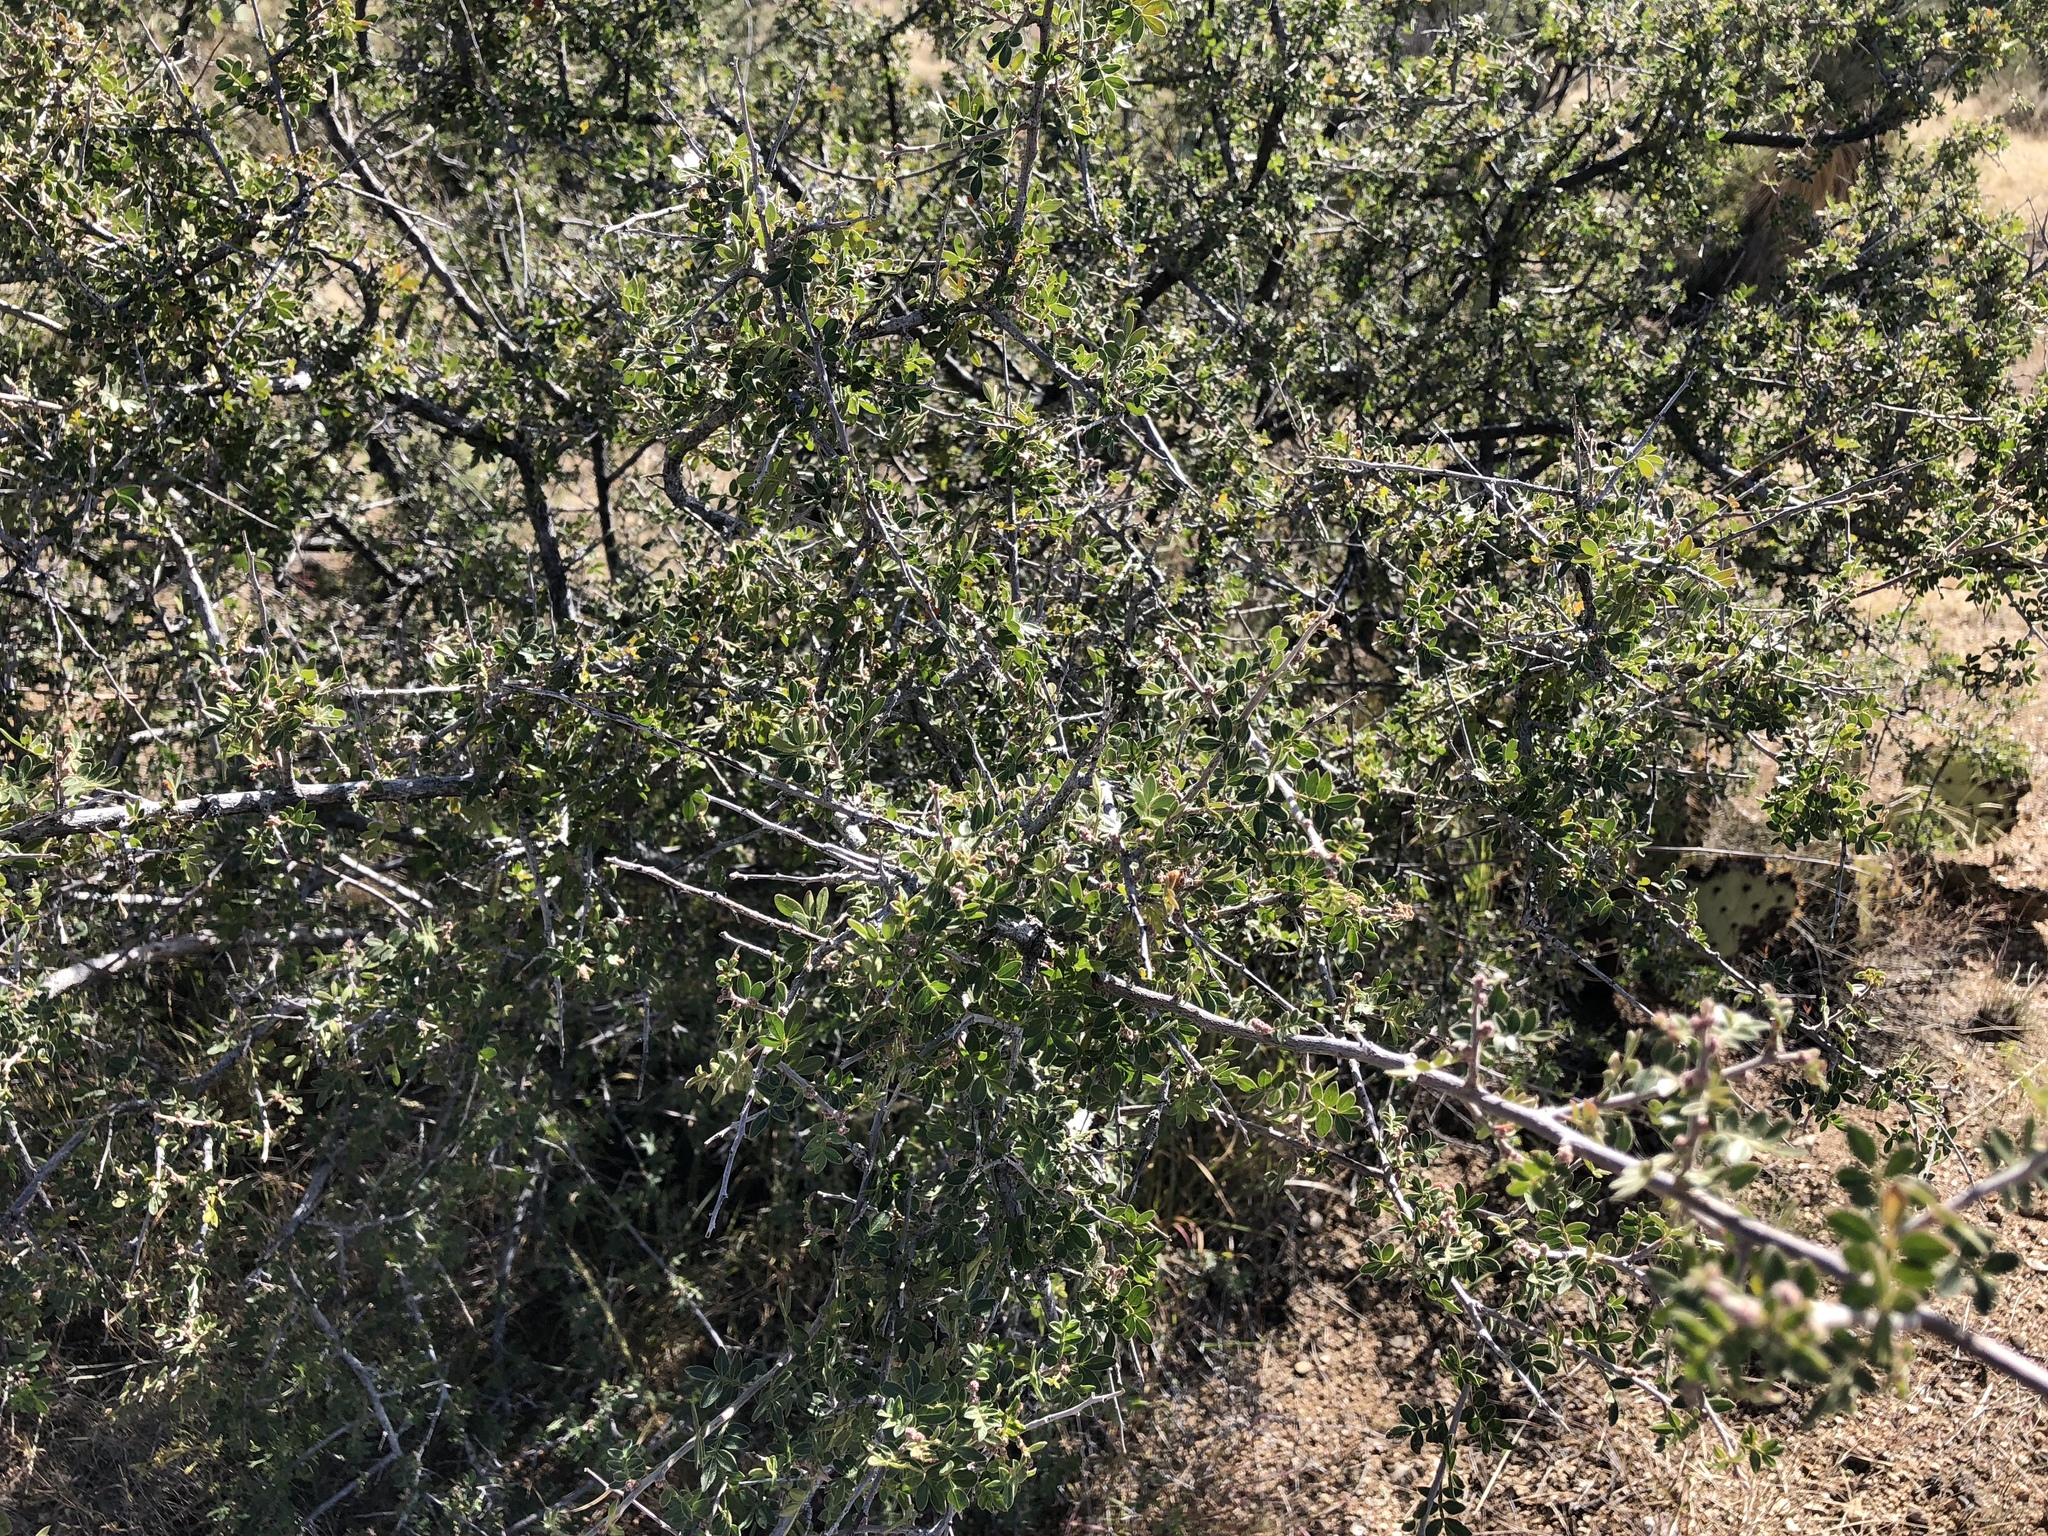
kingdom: Plantae
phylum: Tracheophyta
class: Magnoliopsida
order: Sapindales
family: Anacardiaceae
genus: Rhus
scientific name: Rhus microphylla
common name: Desert sumac
